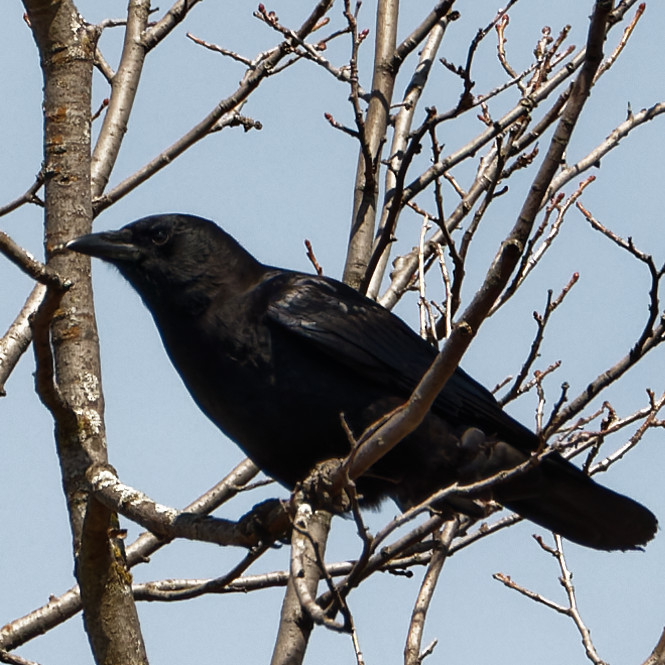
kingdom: Animalia
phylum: Chordata
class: Aves
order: Passeriformes
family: Corvidae
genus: Corvus
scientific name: Corvus brachyrhynchos
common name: American crow
